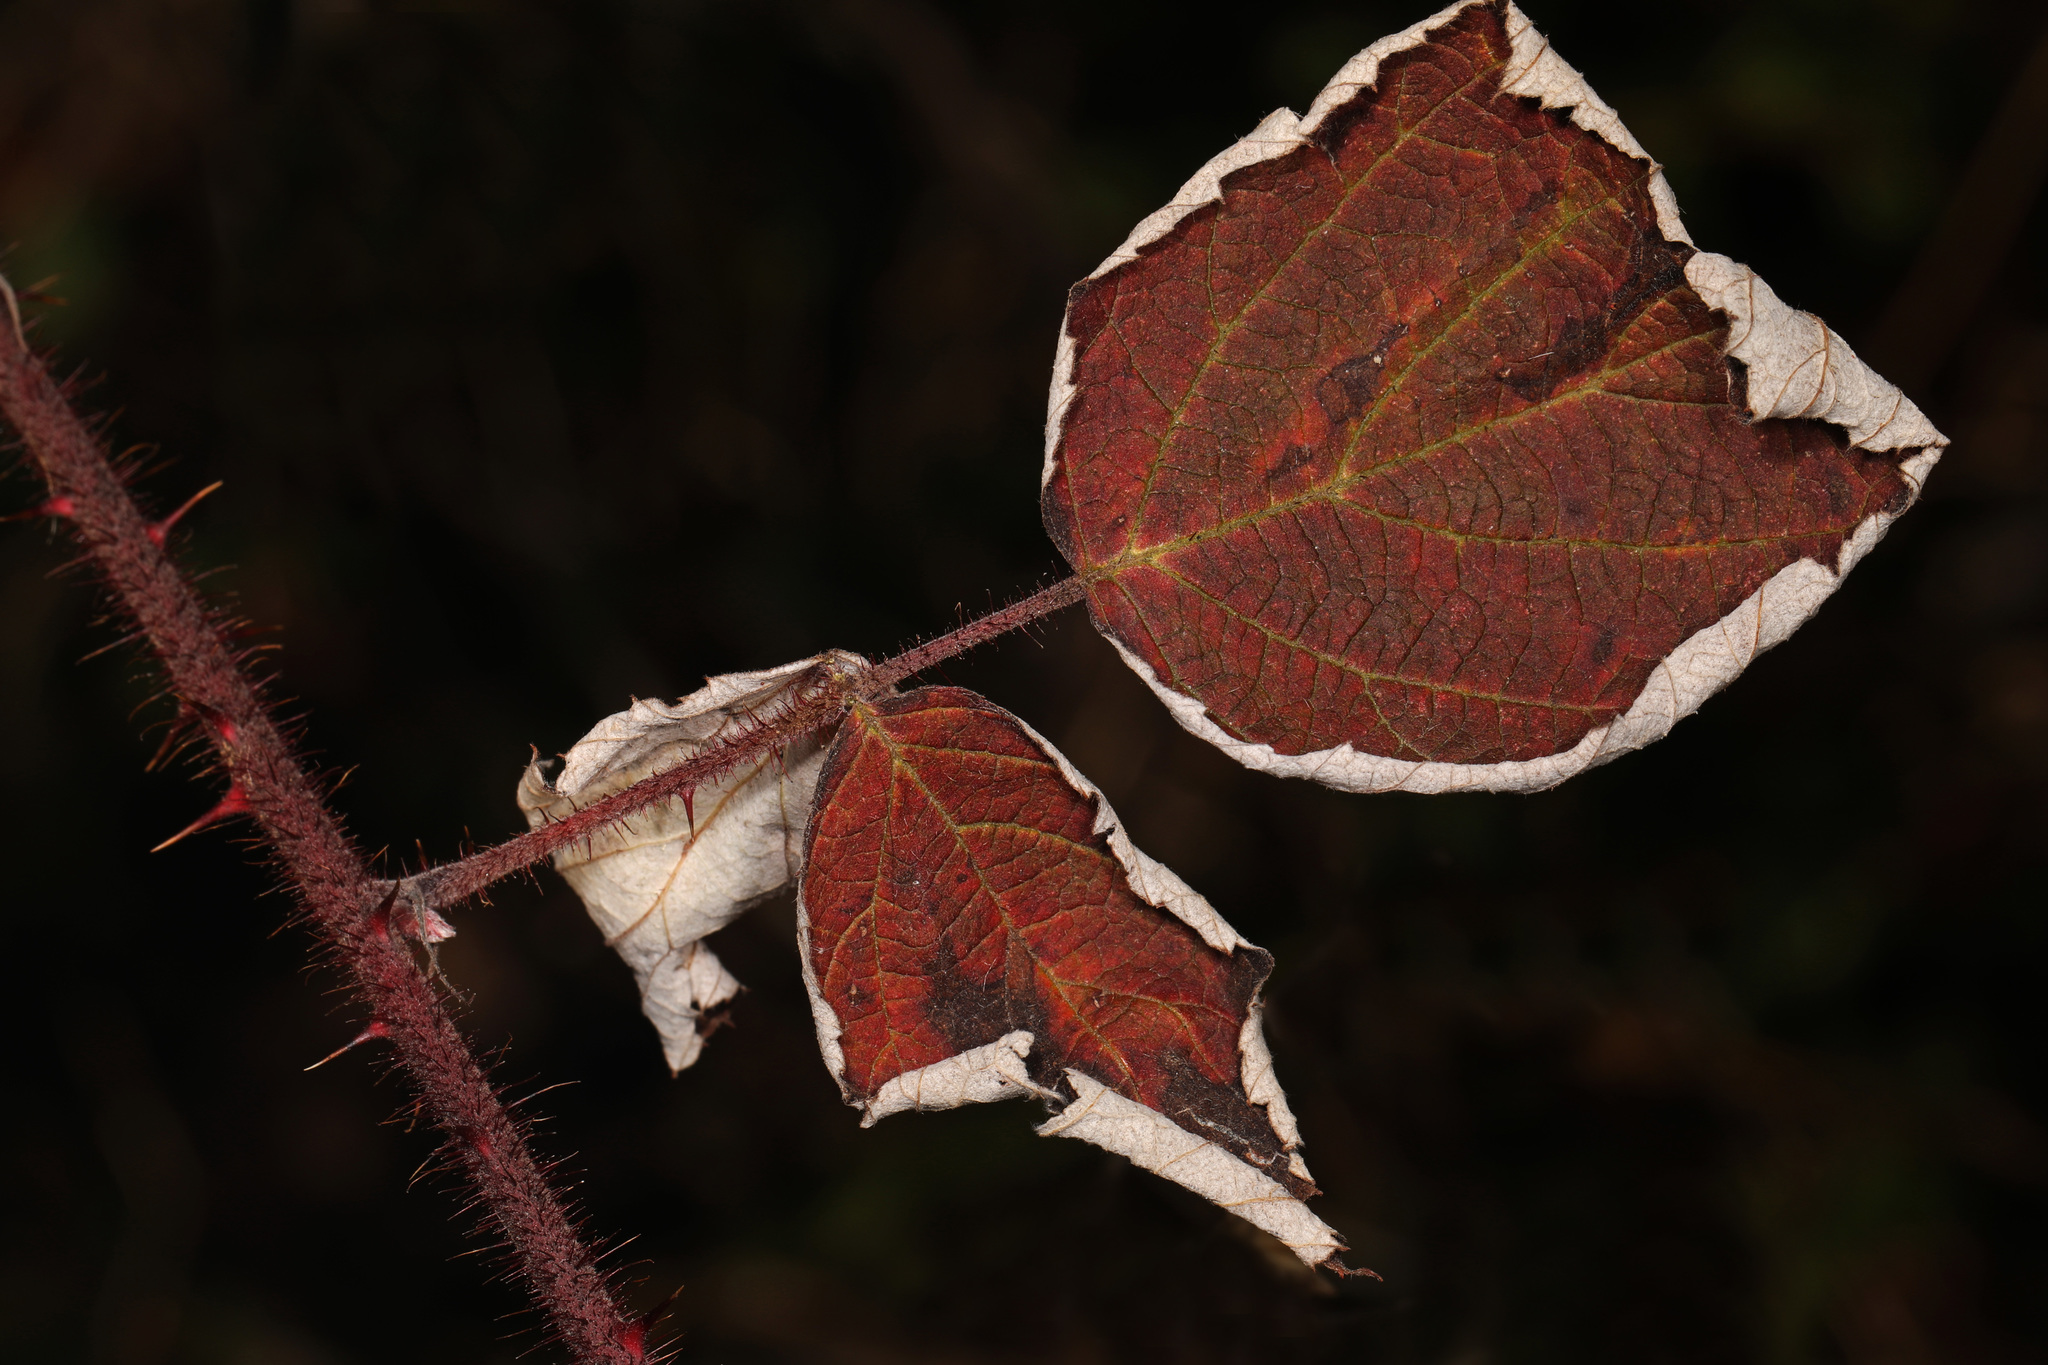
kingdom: Plantae
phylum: Tracheophyta
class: Magnoliopsida
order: Rosales
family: Rosaceae
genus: Rubus
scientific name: Rubus phoenicolasius
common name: Japanese wineberry
